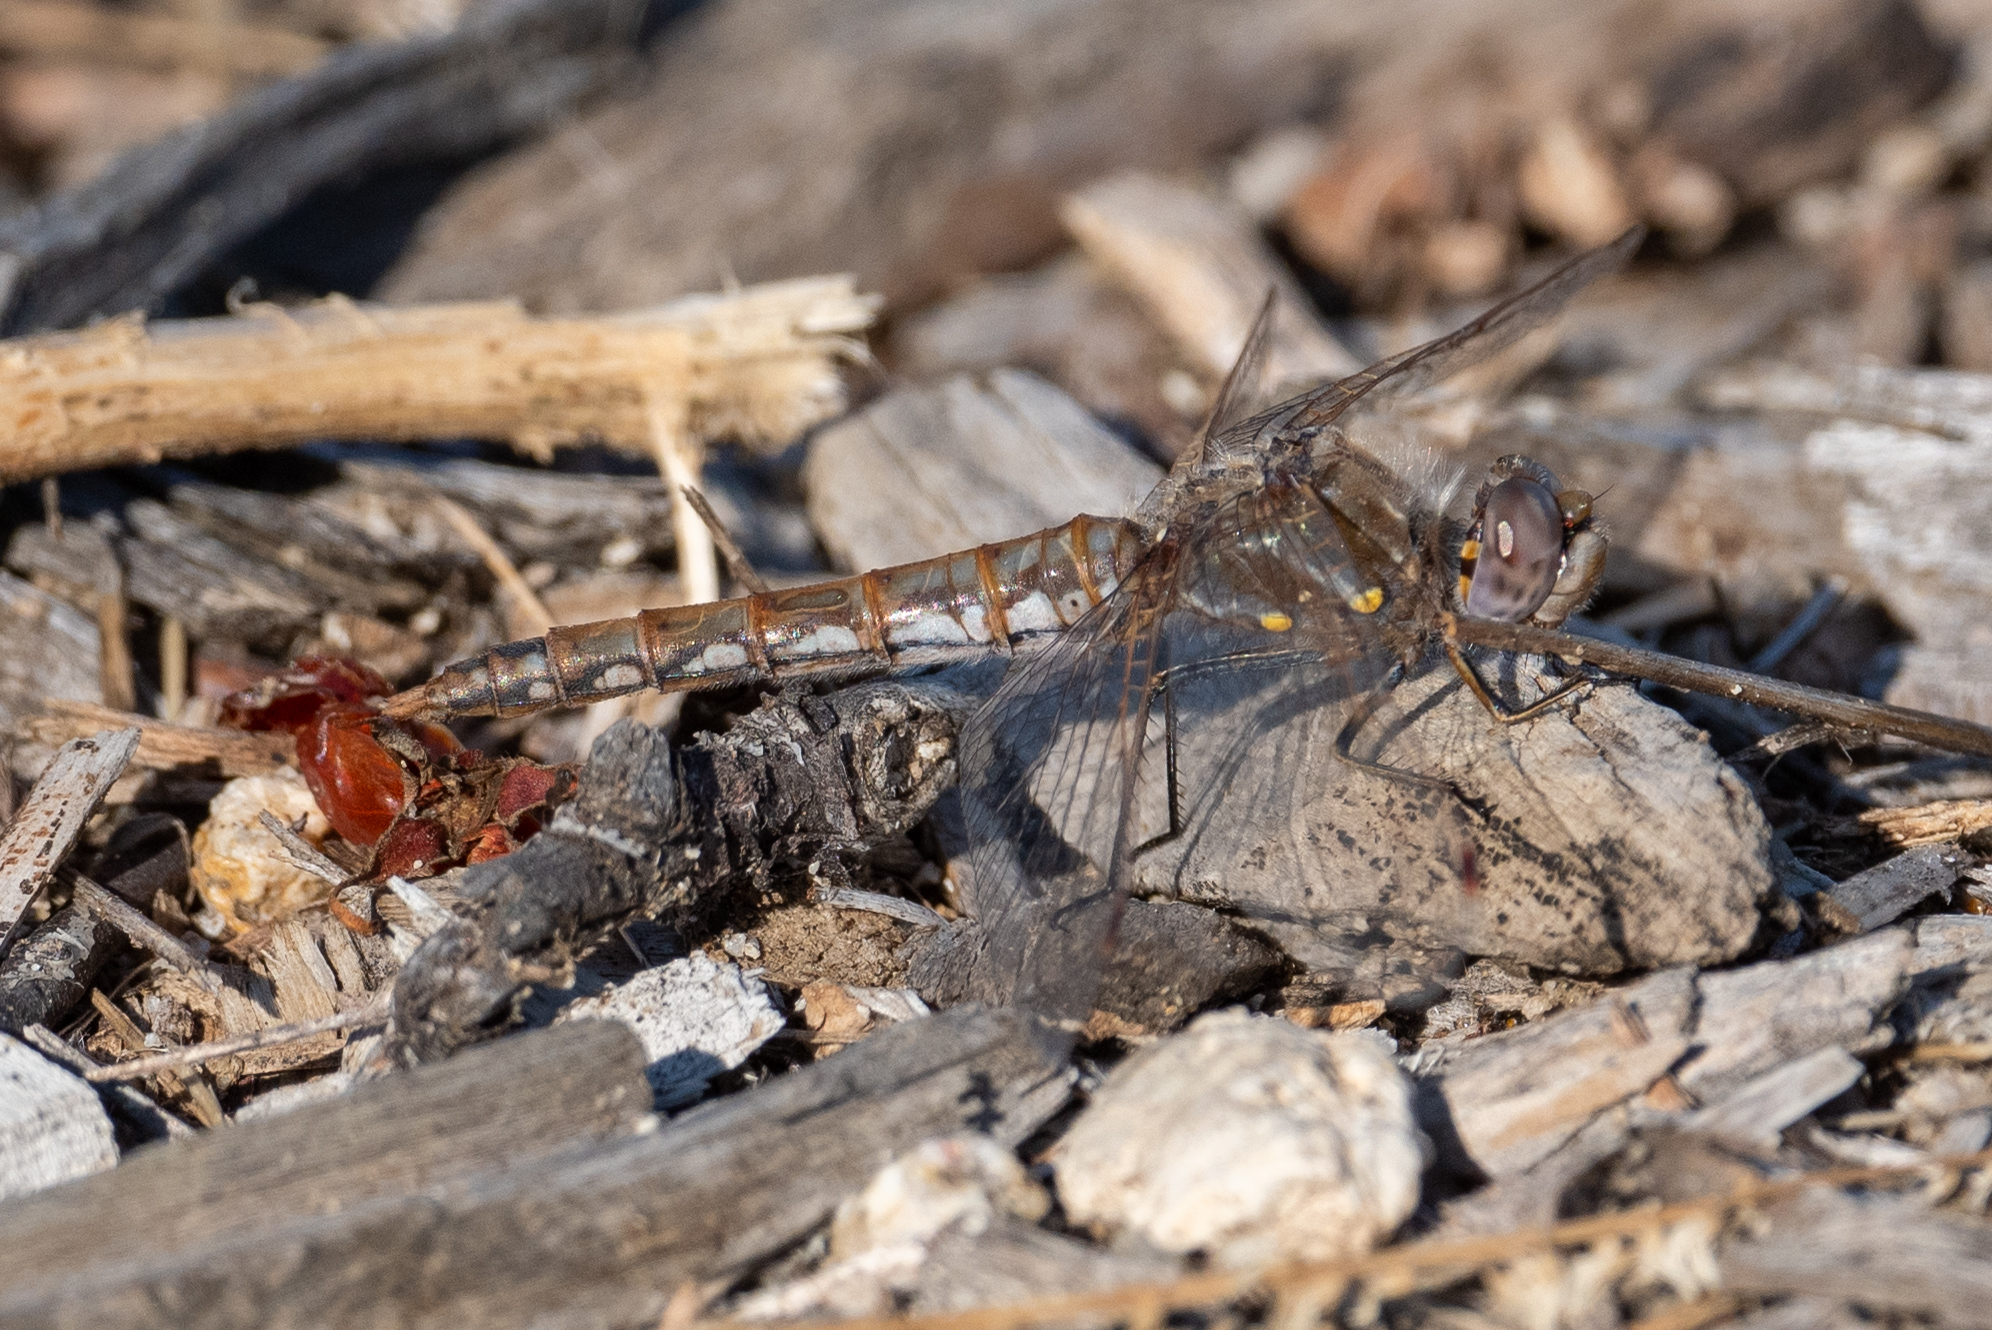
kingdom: Animalia
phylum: Arthropoda
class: Insecta
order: Odonata
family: Libellulidae
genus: Sympetrum
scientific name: Sympetrum corruptum
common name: Variegated meadowhawk
